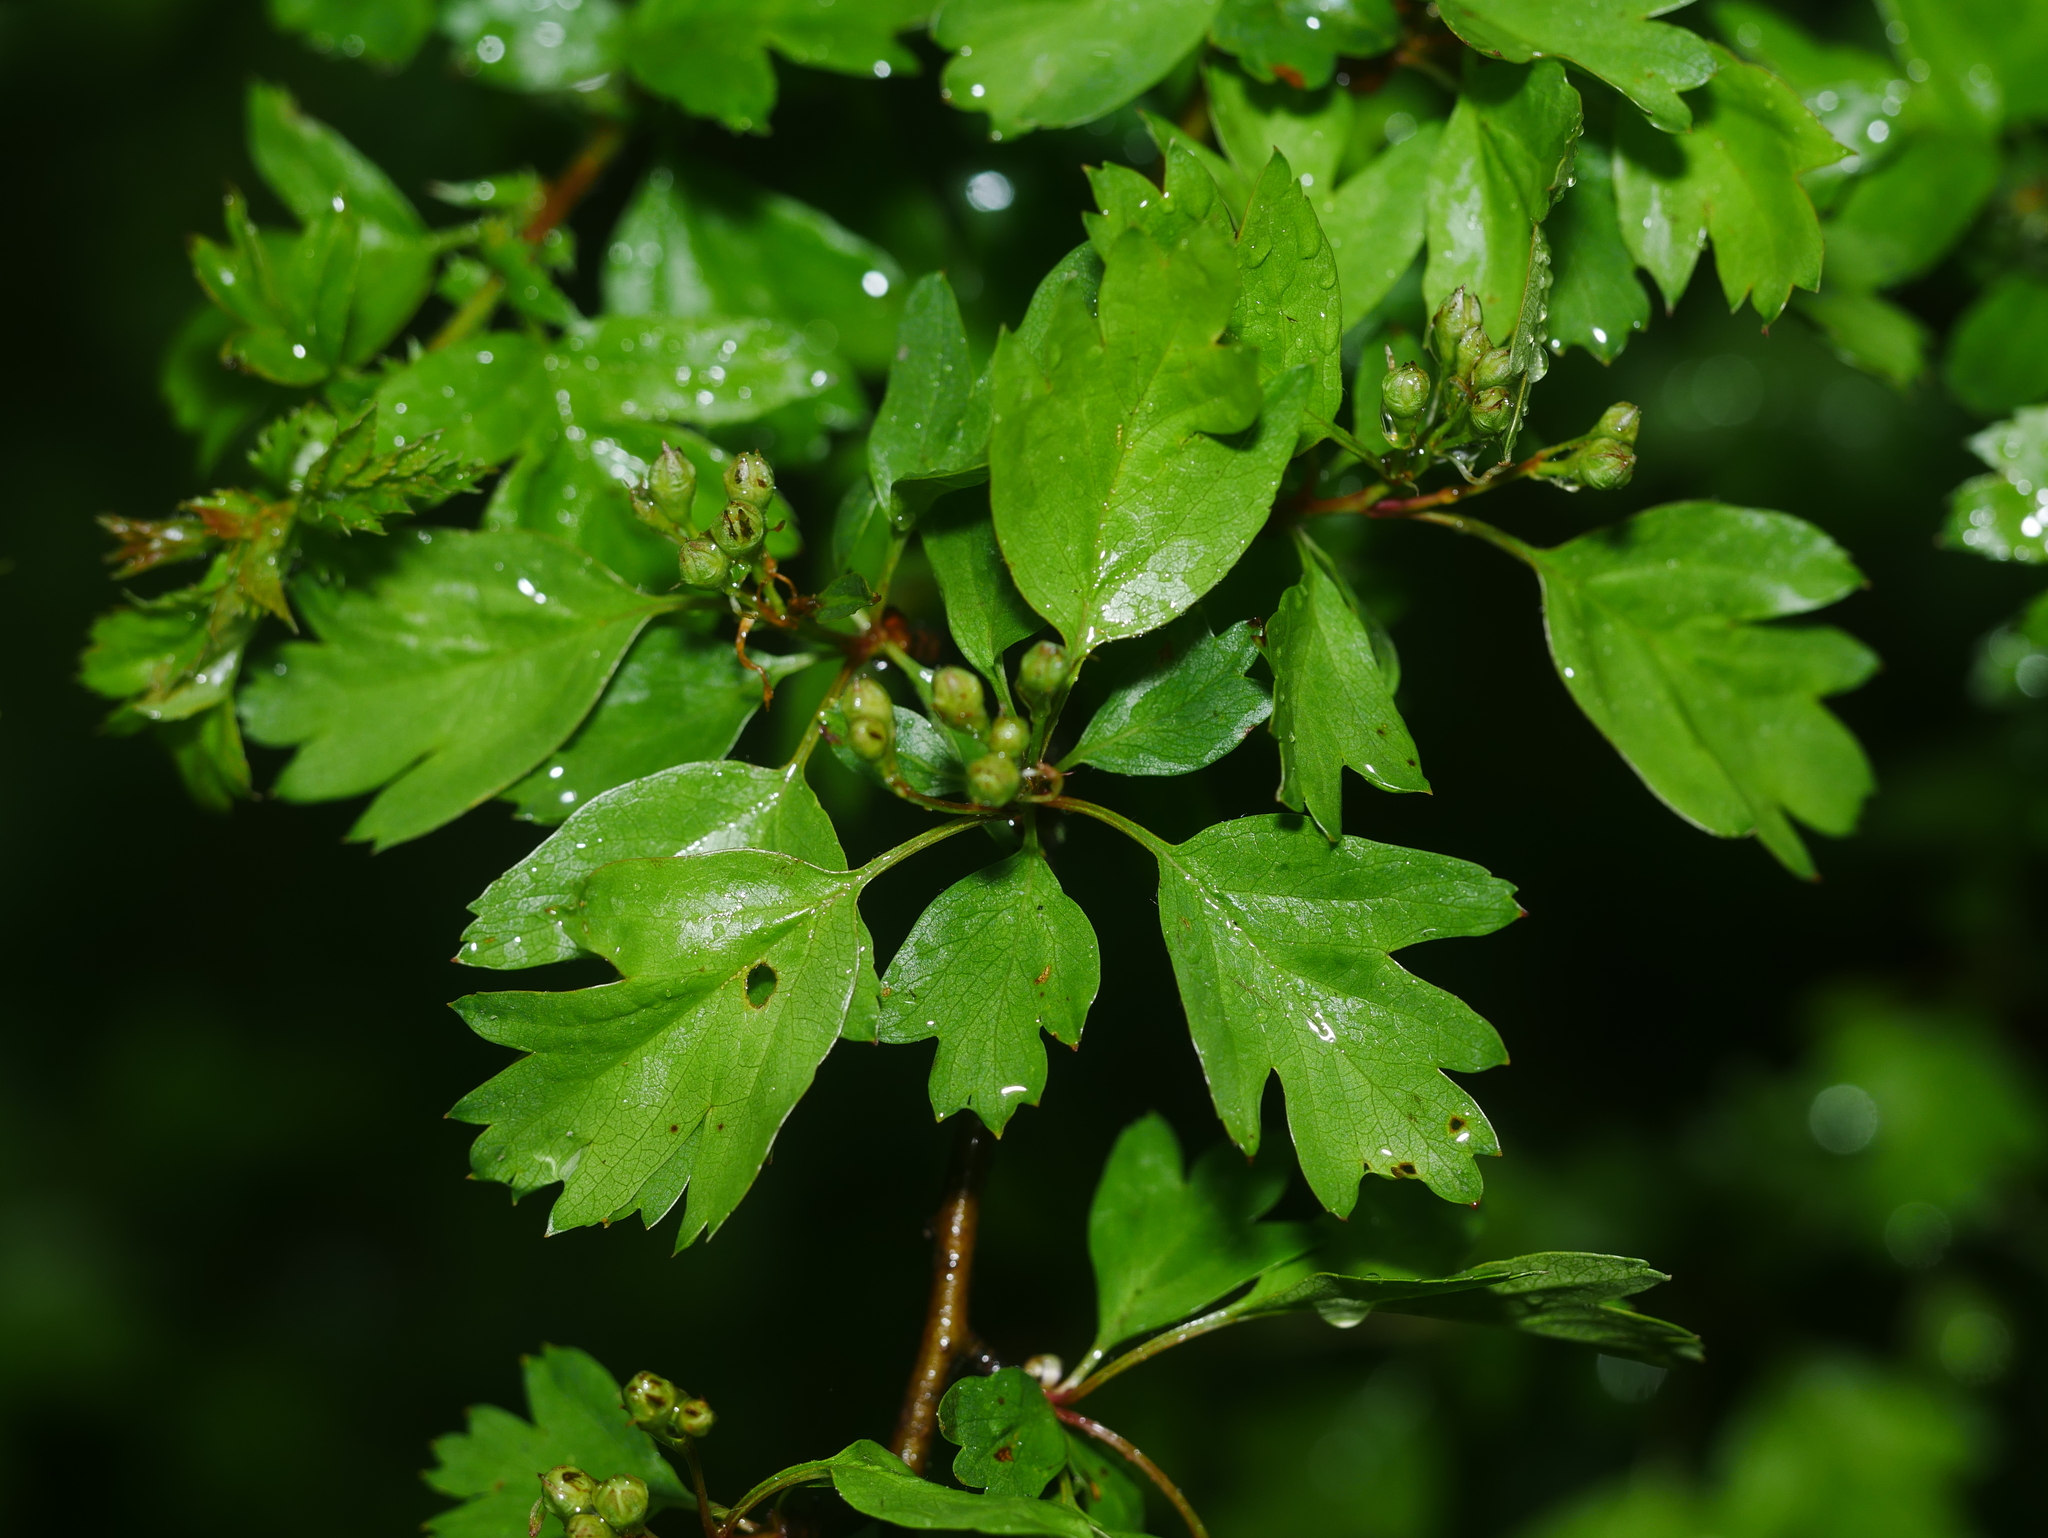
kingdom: Plantae
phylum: Tracheophyta
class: Magnoliopsida
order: Rosales
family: Rosaceae
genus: Crataegus
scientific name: Crataegus monogyna
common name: Hawthorn
